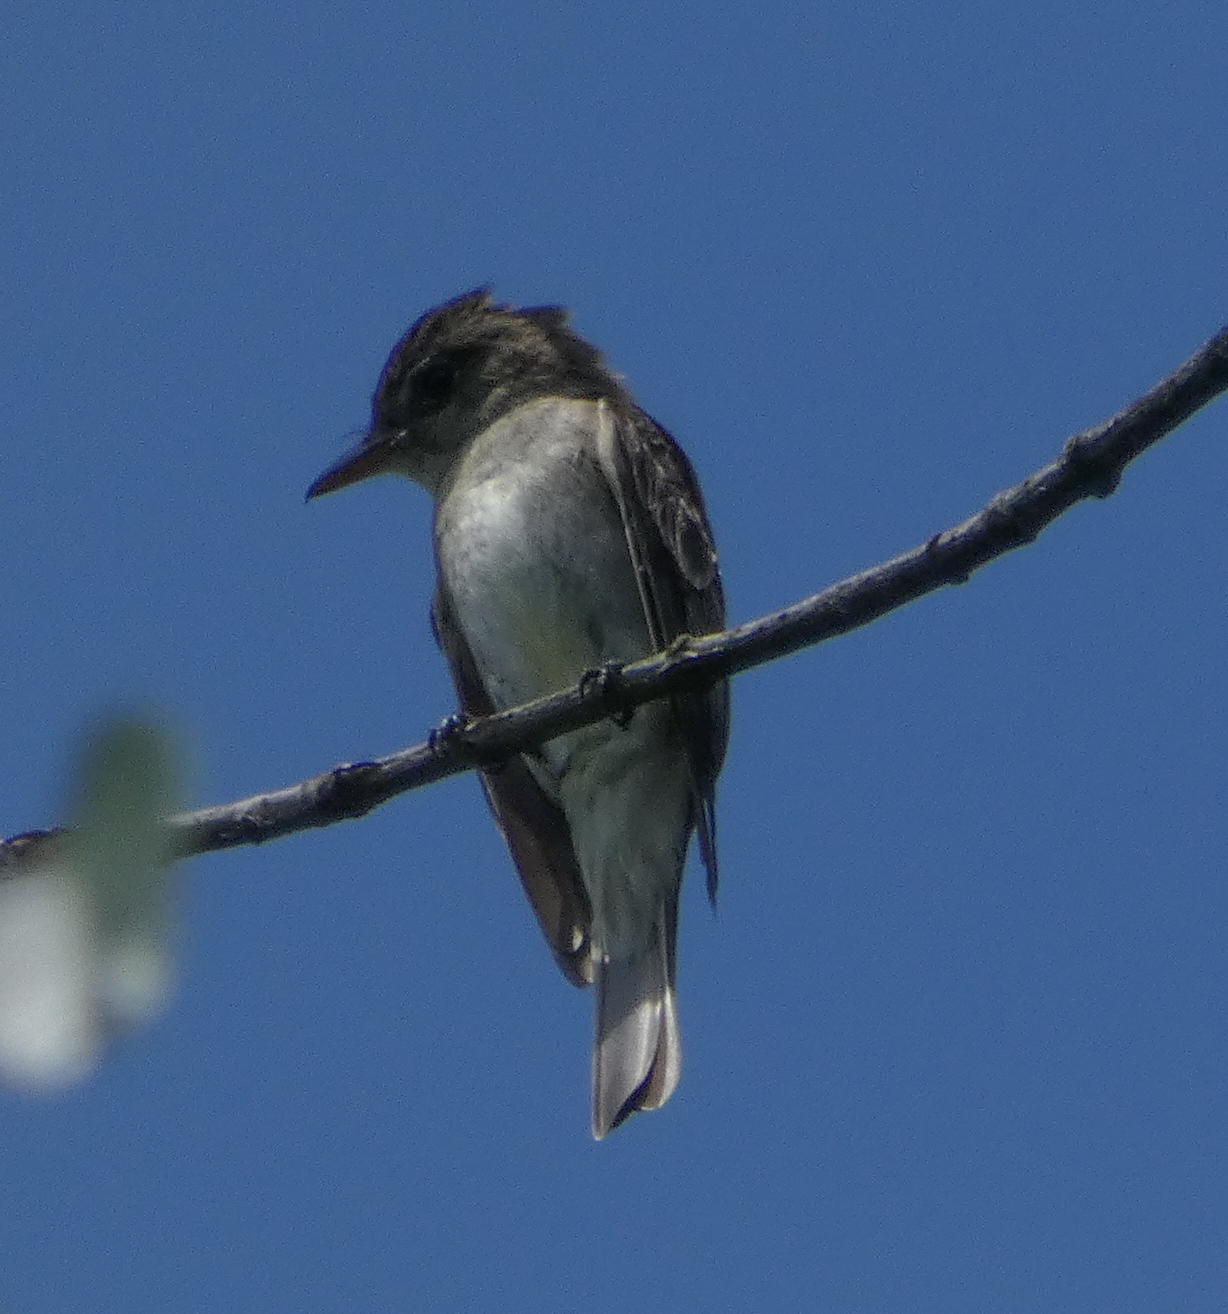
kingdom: Animalia
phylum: Chordata
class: Aves
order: Passeriformes
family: Tyrannidae
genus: Contopus
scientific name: Contopus virens
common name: Eastern wood-pewee
